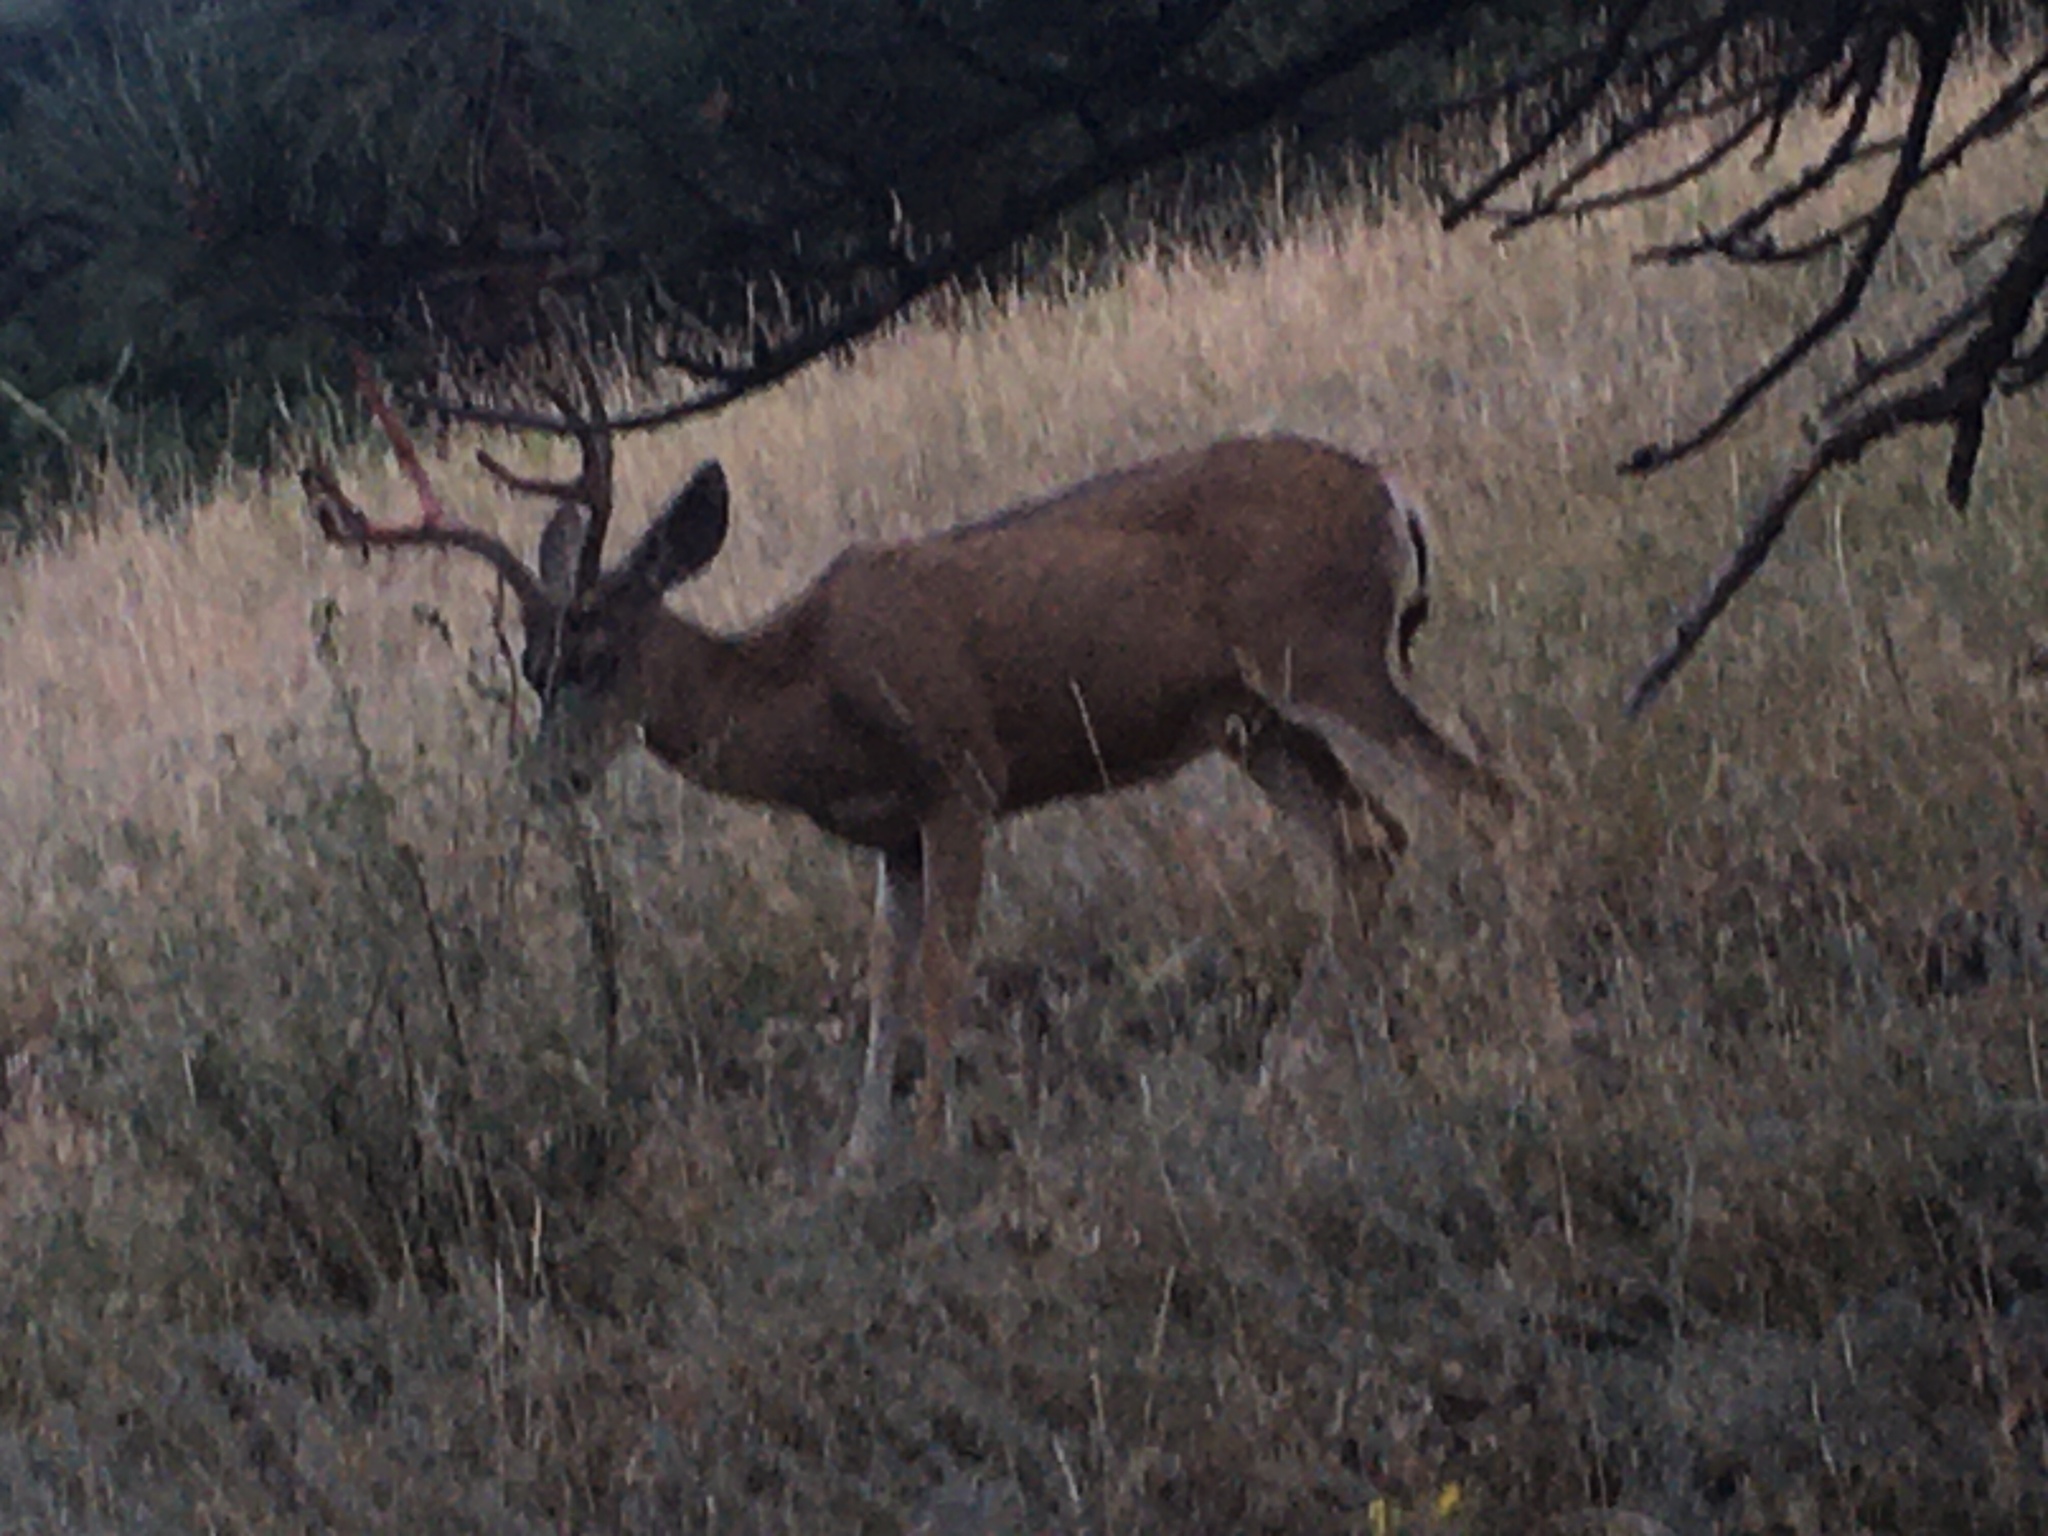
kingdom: Animalia
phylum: Chordata
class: Mammalia
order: Artiodactyla
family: Cervidae
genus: Odocoileus
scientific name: Odocoileus hemionus
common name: Mule deer
